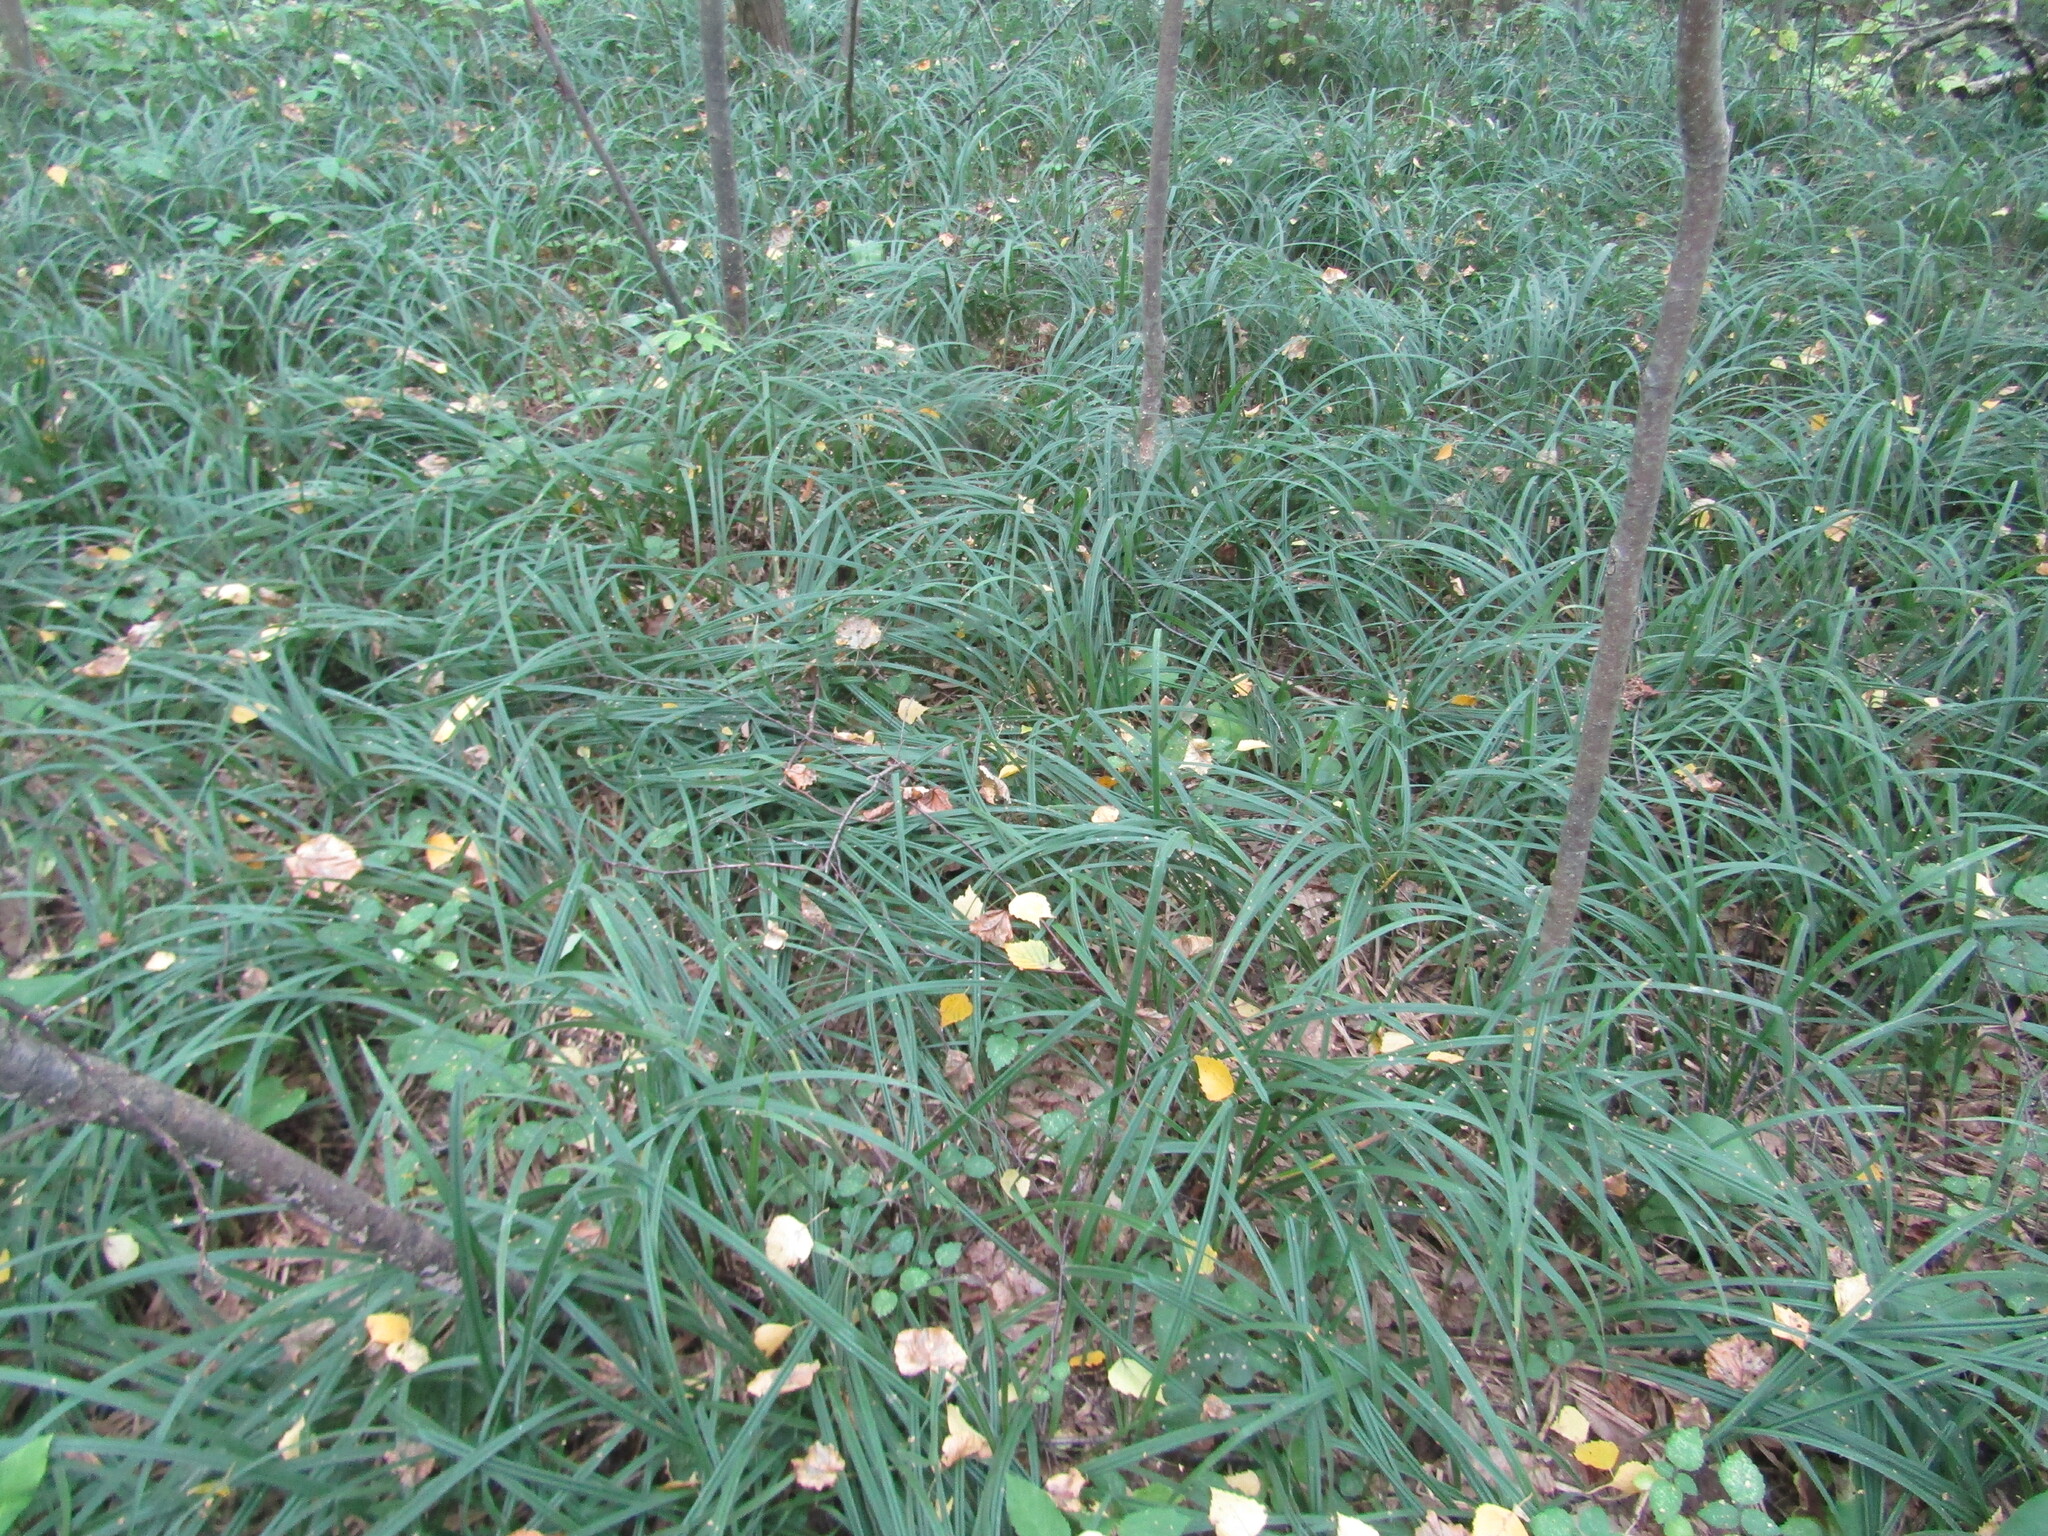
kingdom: Plantae
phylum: Tracheophyta
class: Liliopsida
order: Poales
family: Cyperaceae
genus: Carex
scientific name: Carex pilosa
